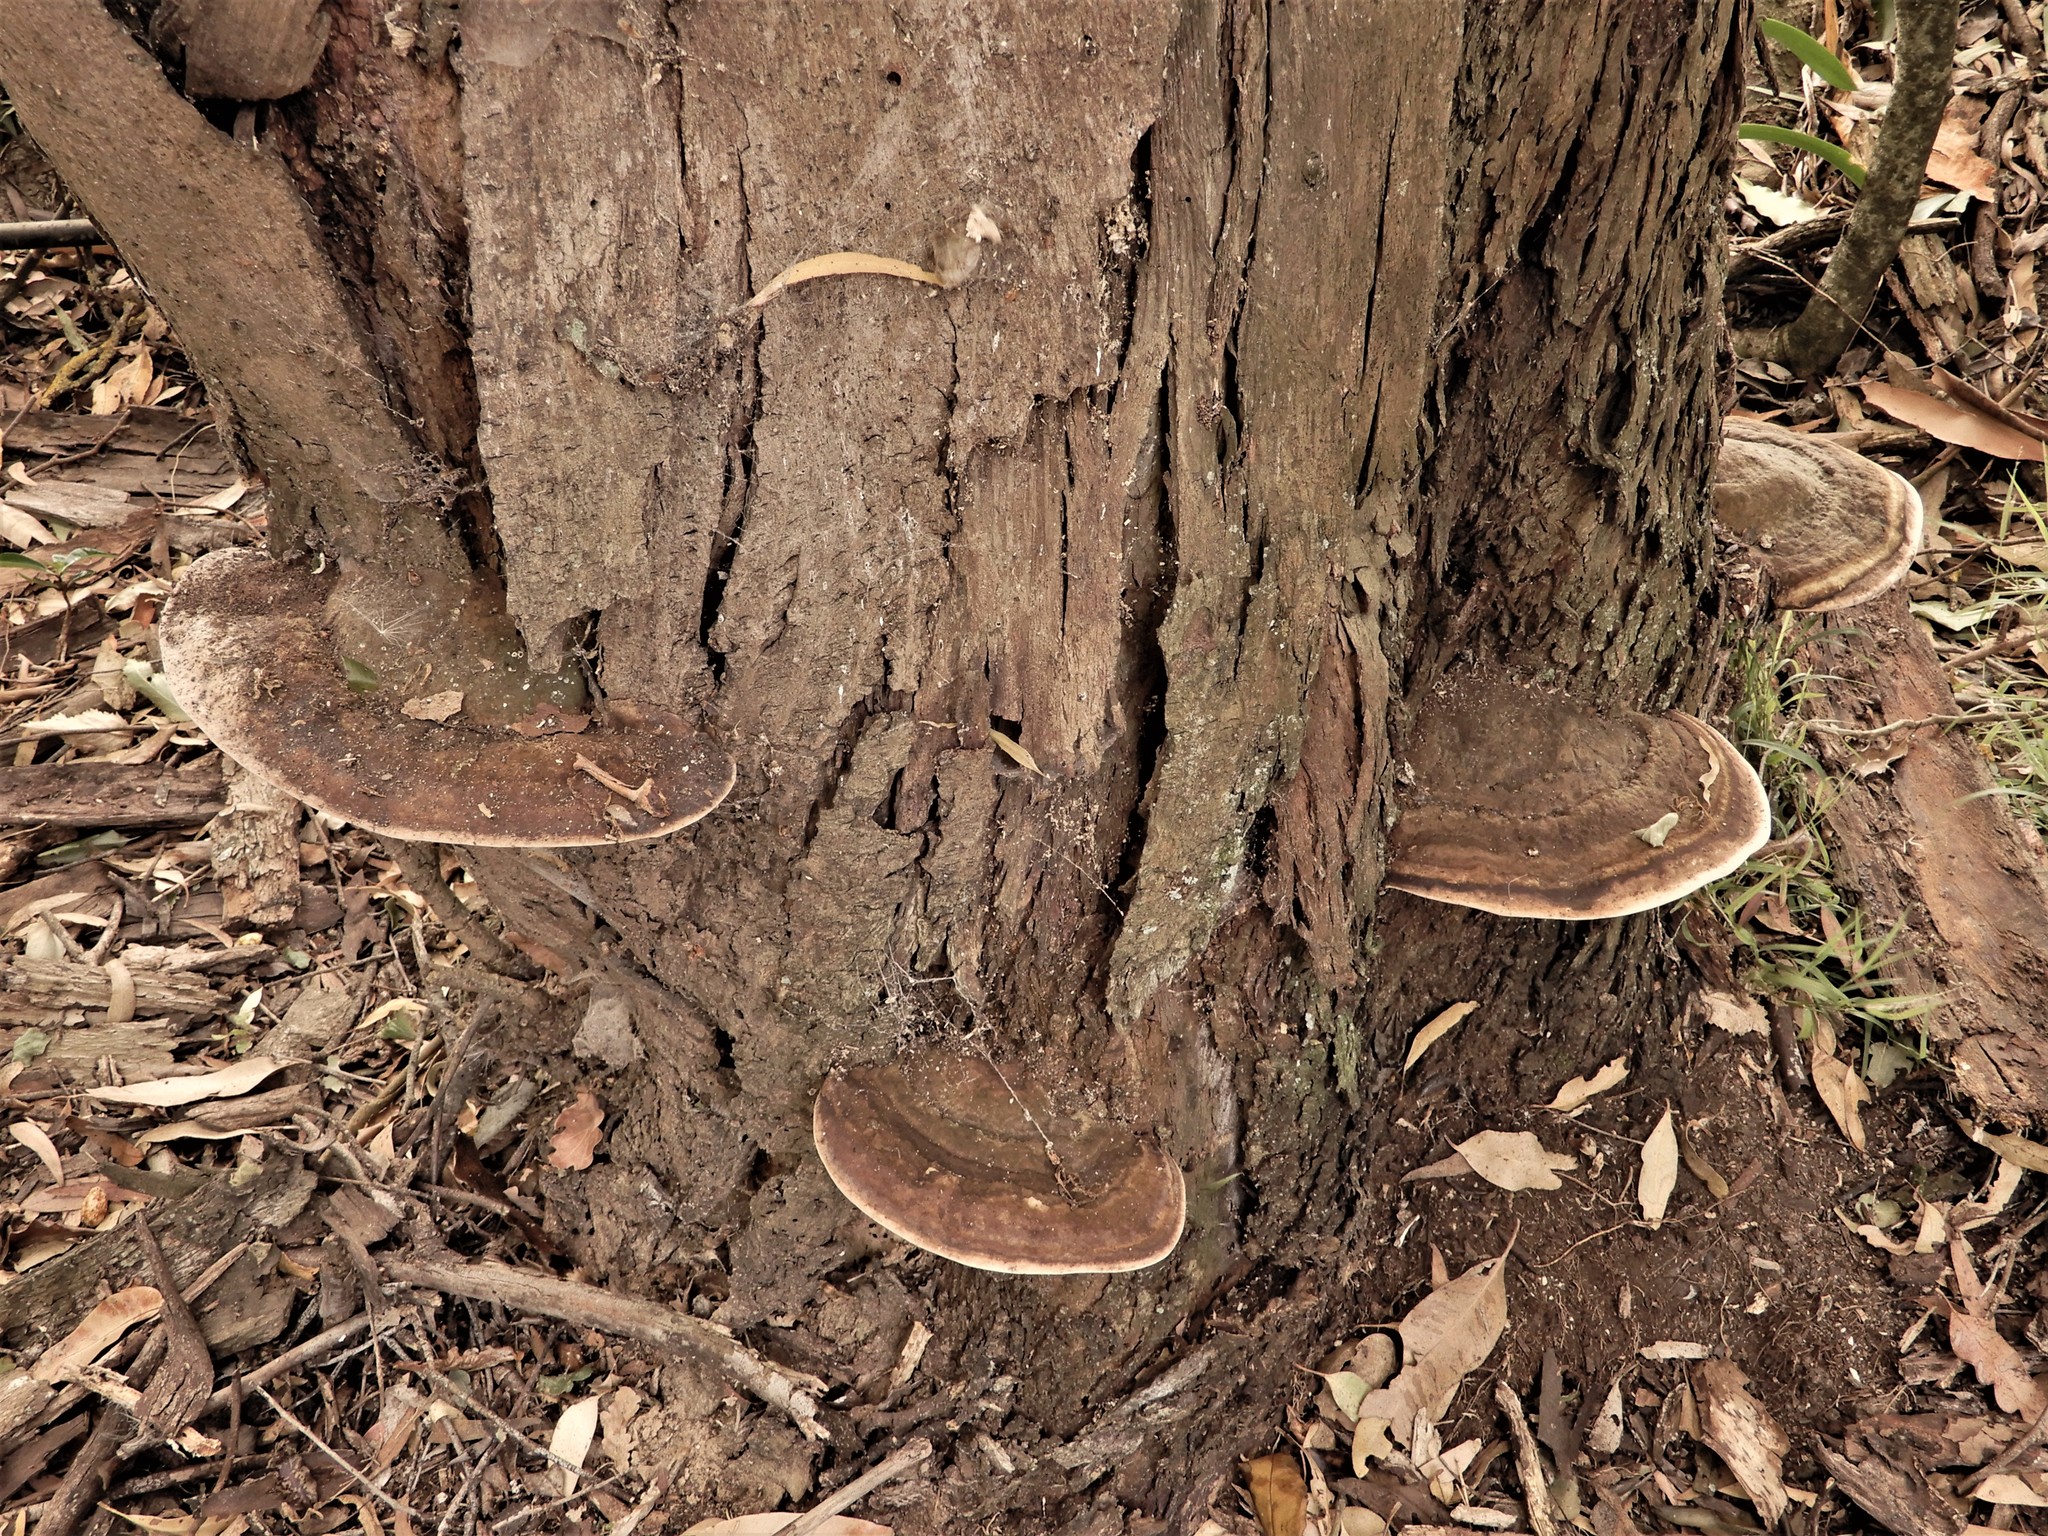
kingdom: Fungi
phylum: Basidiomycota
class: Agaricomycetes
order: Polyporales
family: Fomitopsidaceae
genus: Pilatoporus
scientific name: Pilatoporus hemitephrus
